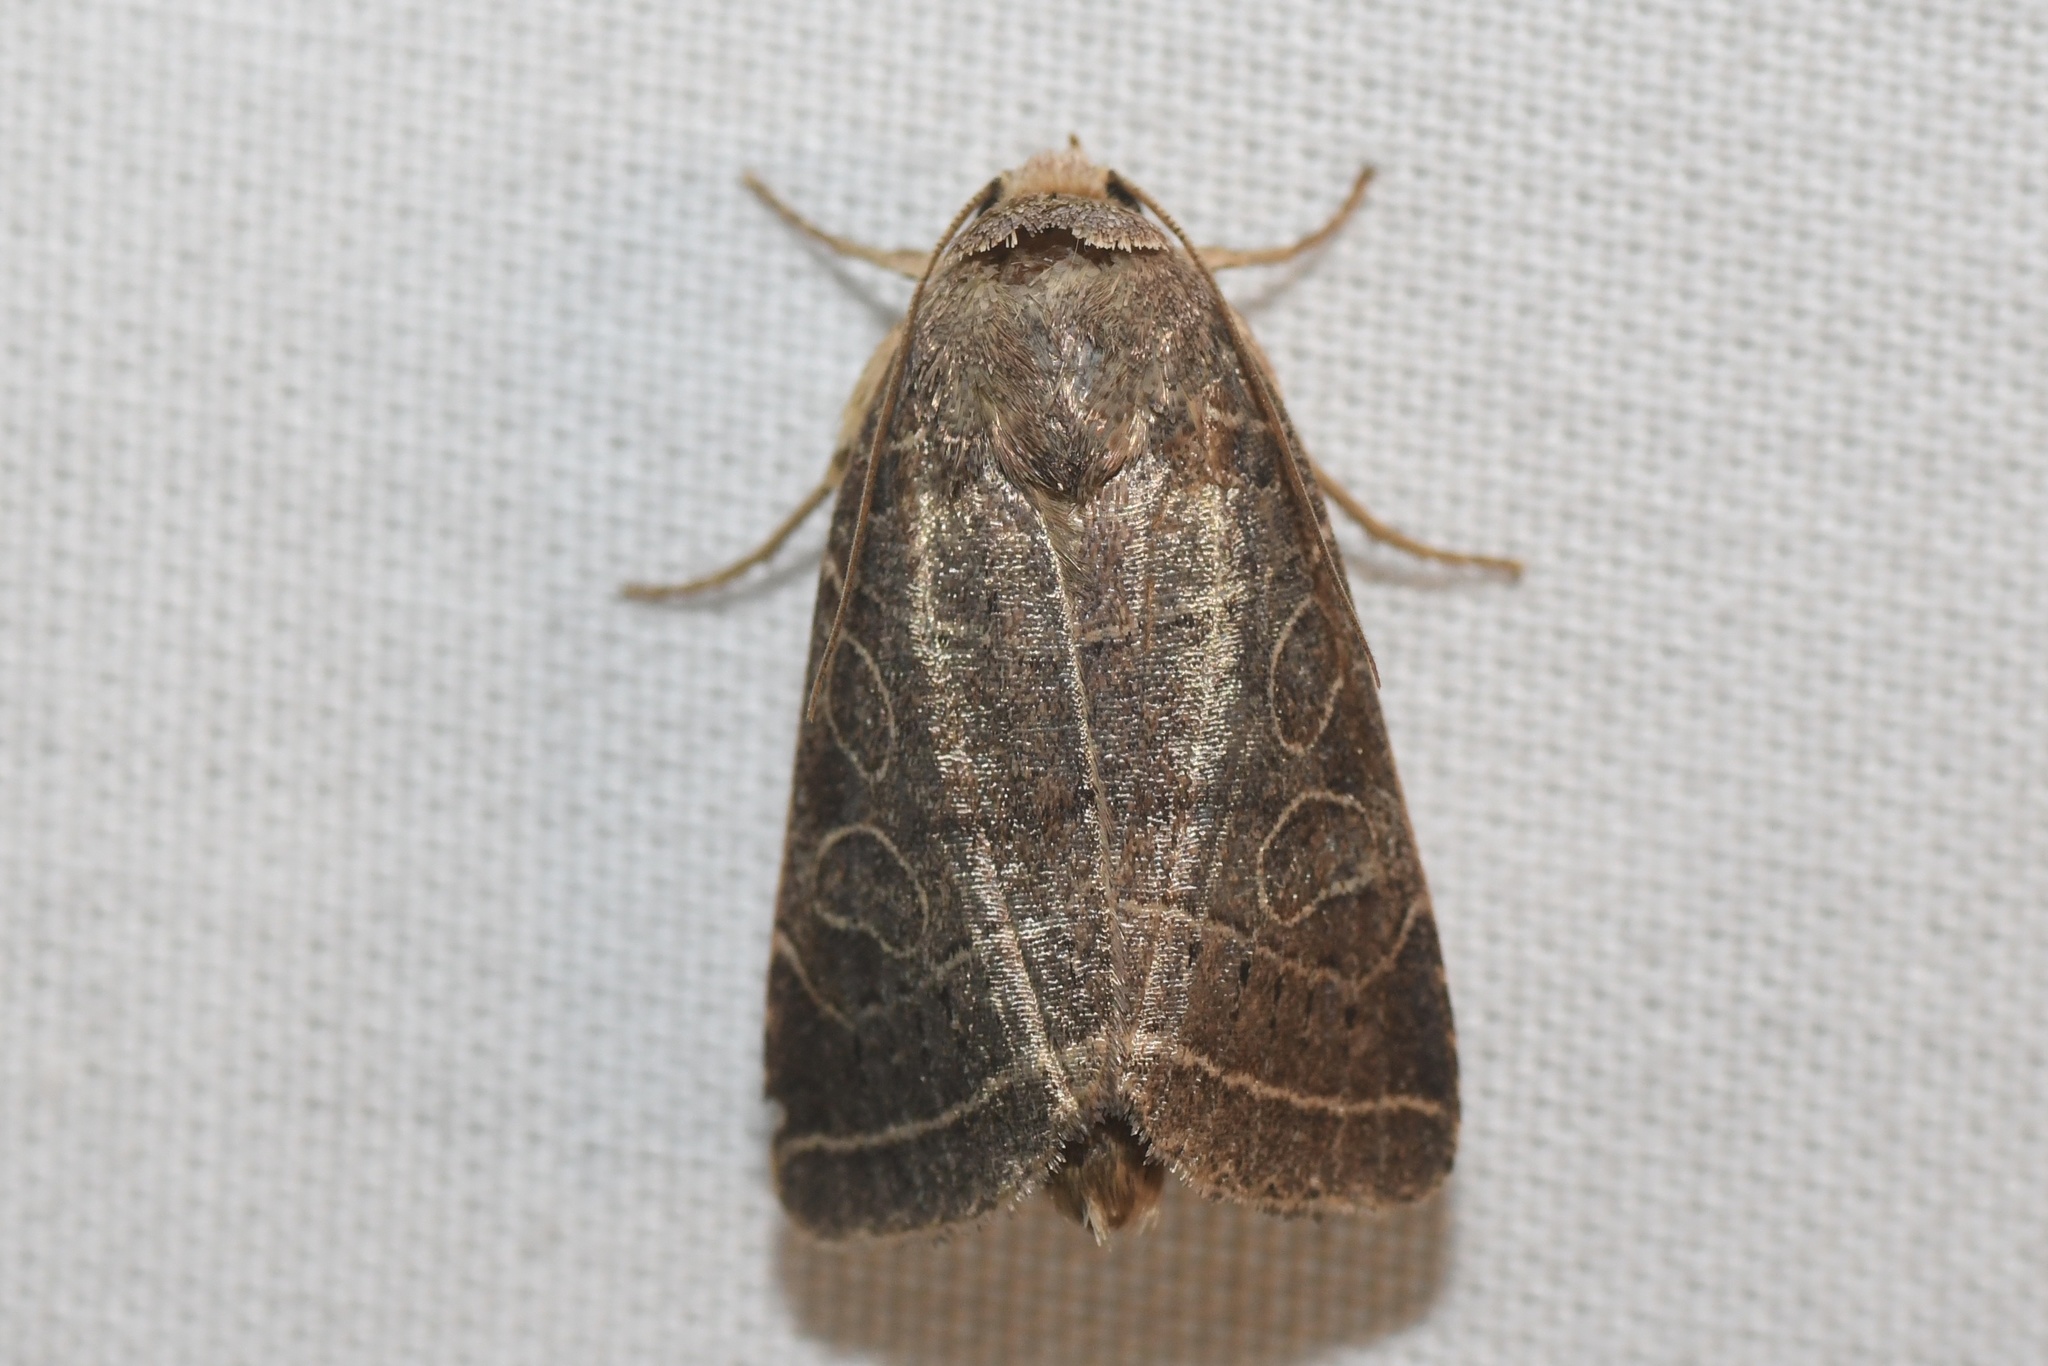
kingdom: Animalia
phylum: Arthropoda
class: Insecta
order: Lepidoptera
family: Noctuidae
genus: Orthodes
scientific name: Orthodes majuscula
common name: Rustic quaker
